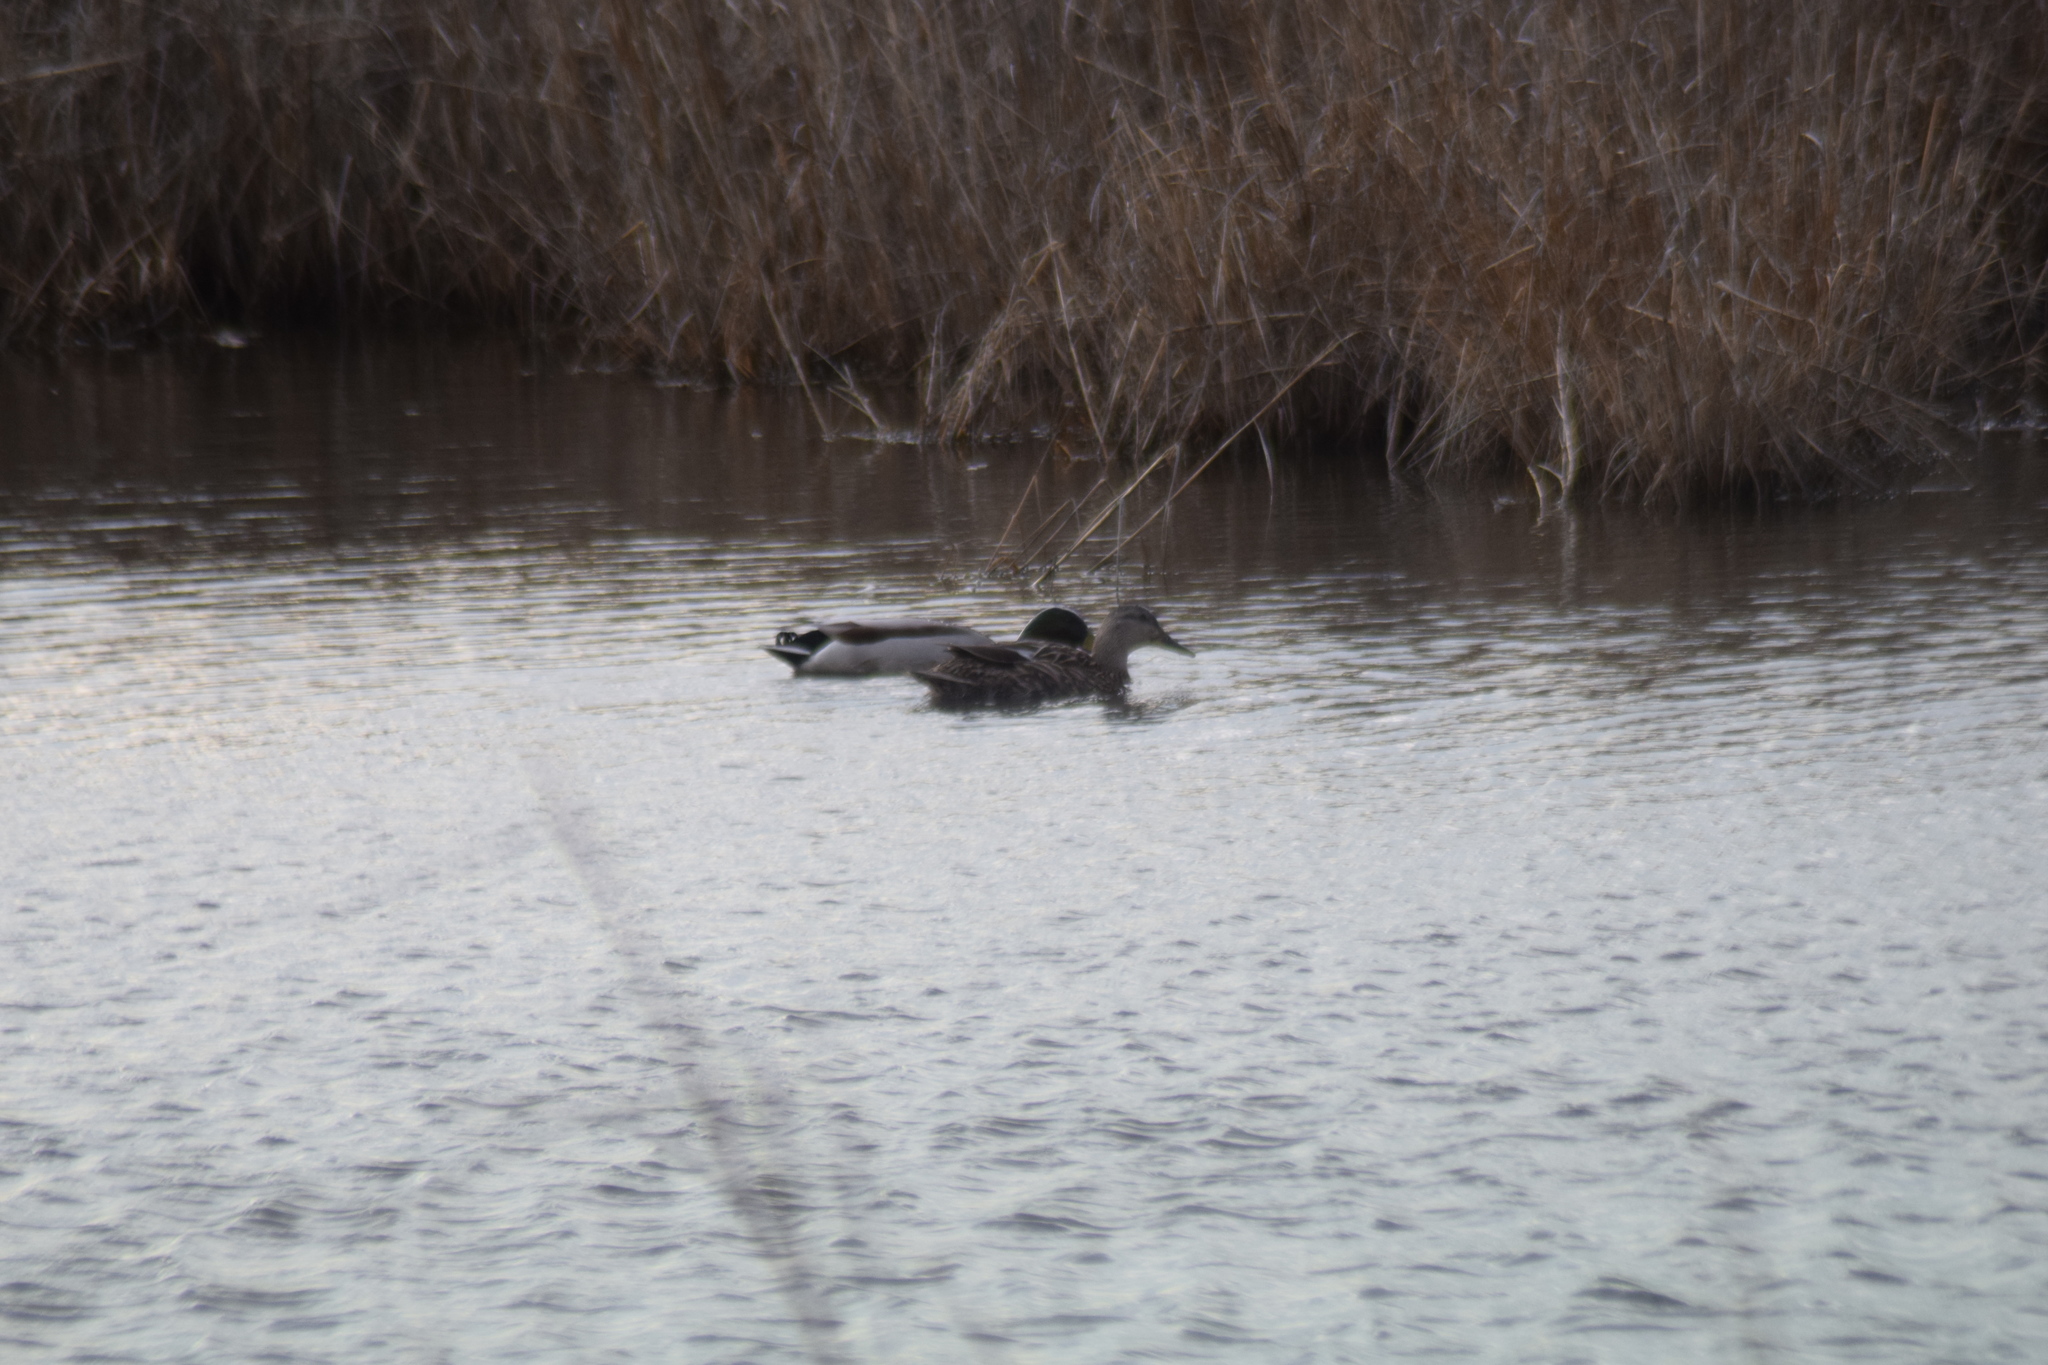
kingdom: Animalia
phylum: Chordata
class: Aves
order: Anseriformes
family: Anatidae
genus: Anas
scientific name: Anas platyrhynchos
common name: Mallard
